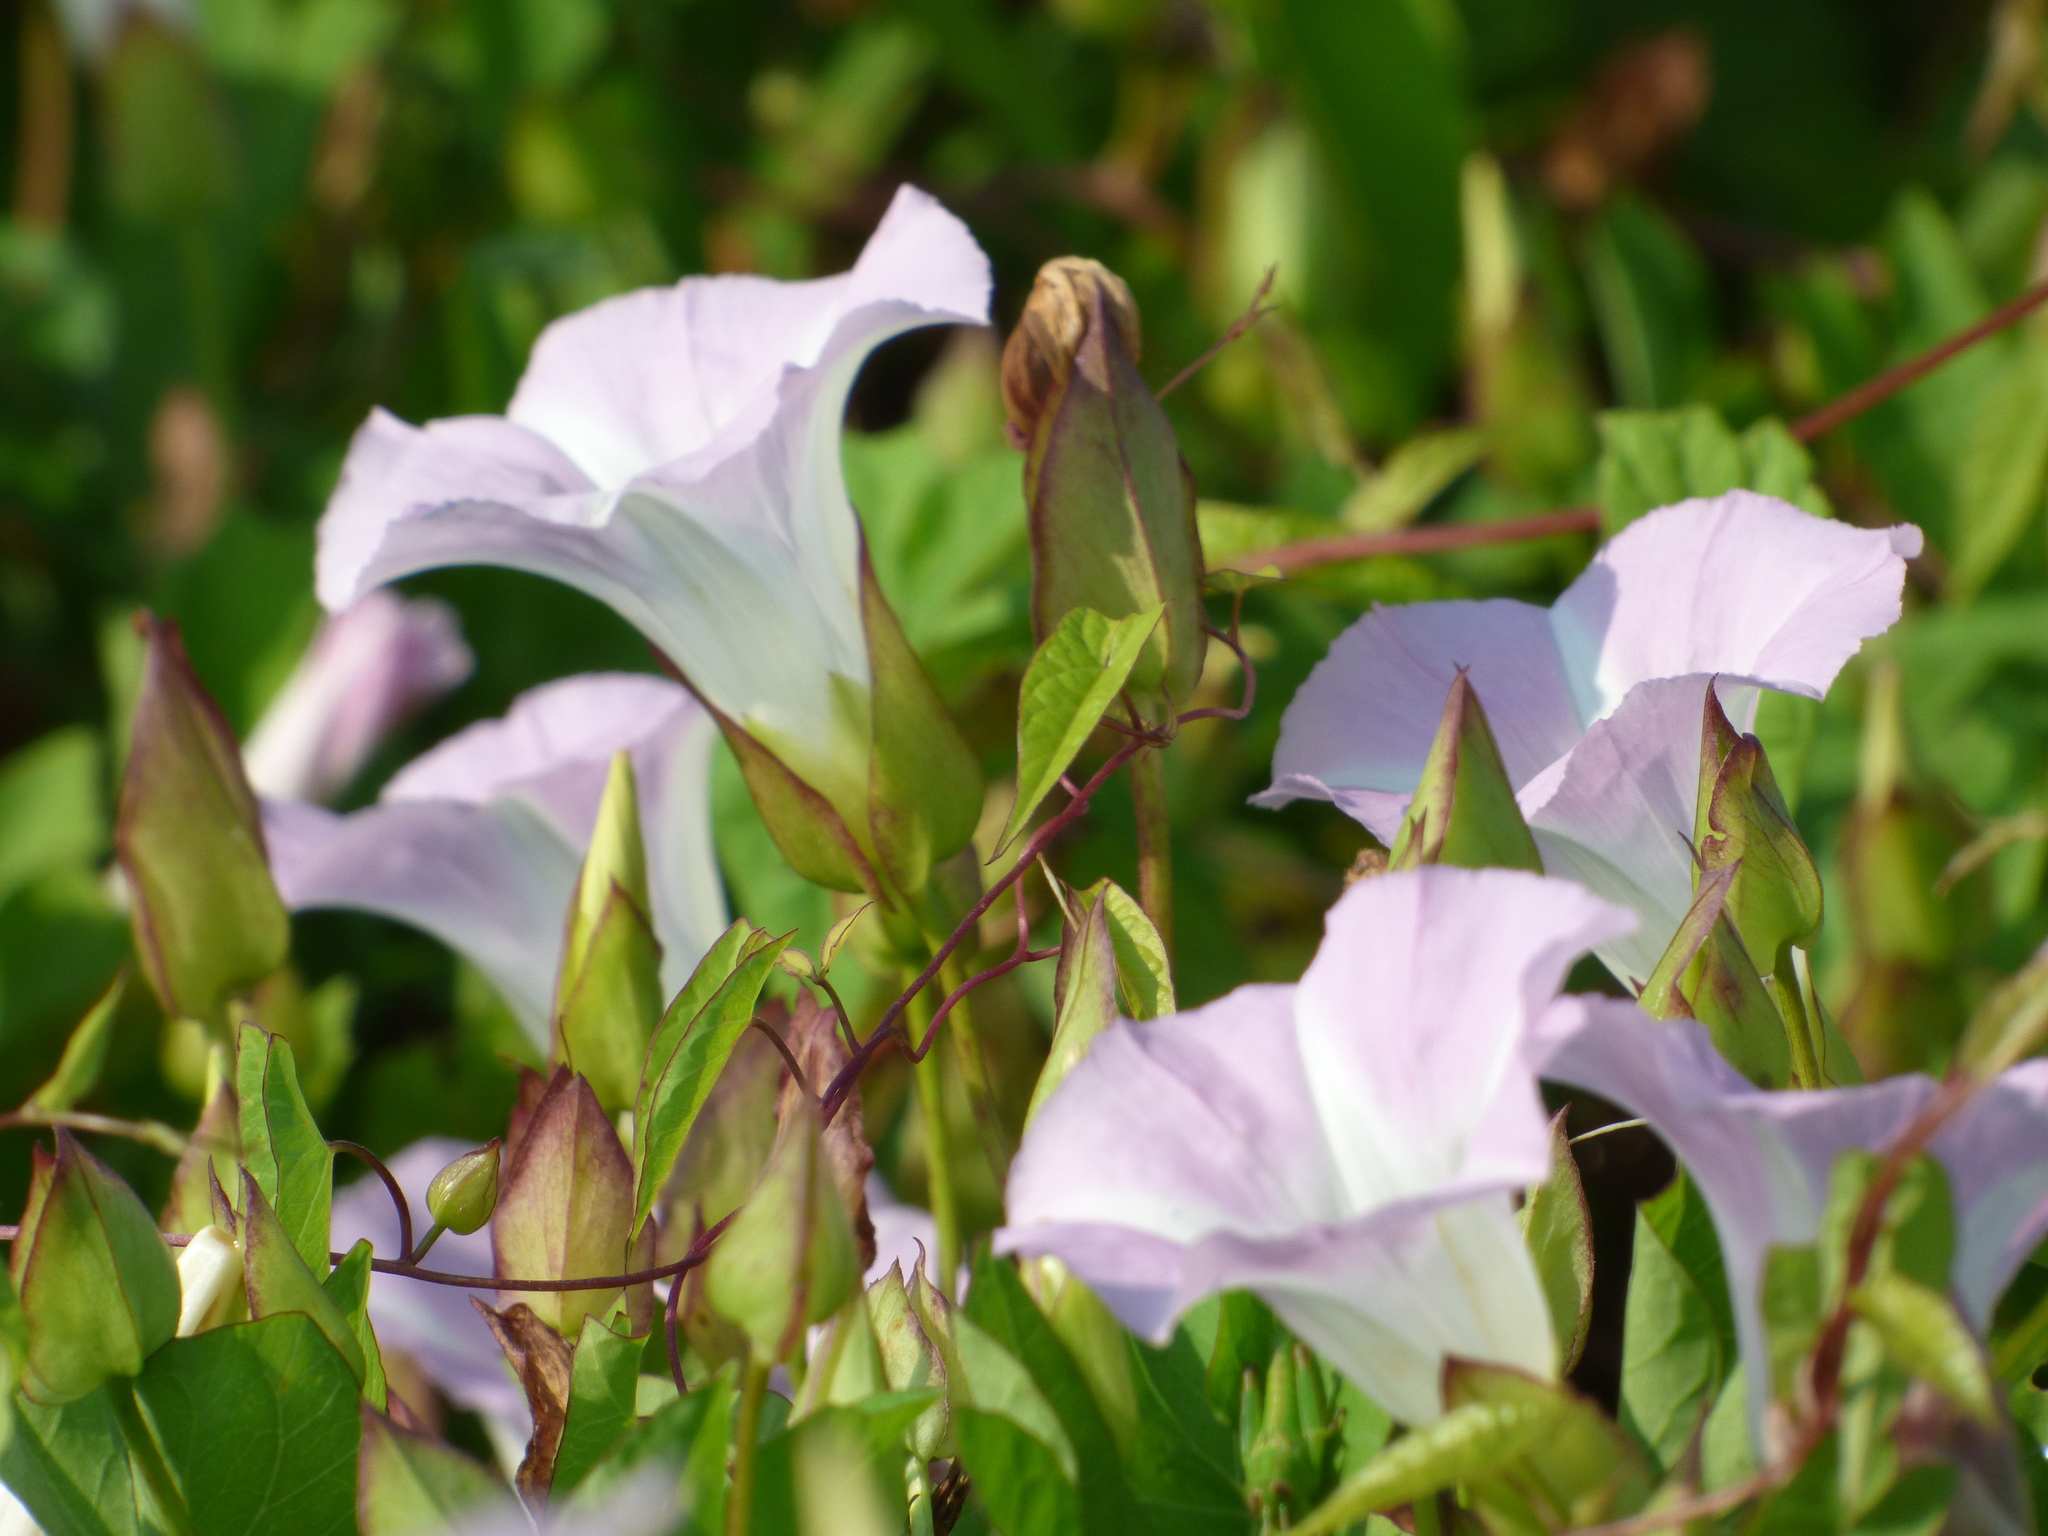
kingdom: Plantae
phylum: Tracheophyta
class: Magnoliopsida
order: Solanales
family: Convolvulaceae
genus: Calystegia
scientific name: Calystegia sepium
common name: Hedge bindweed
